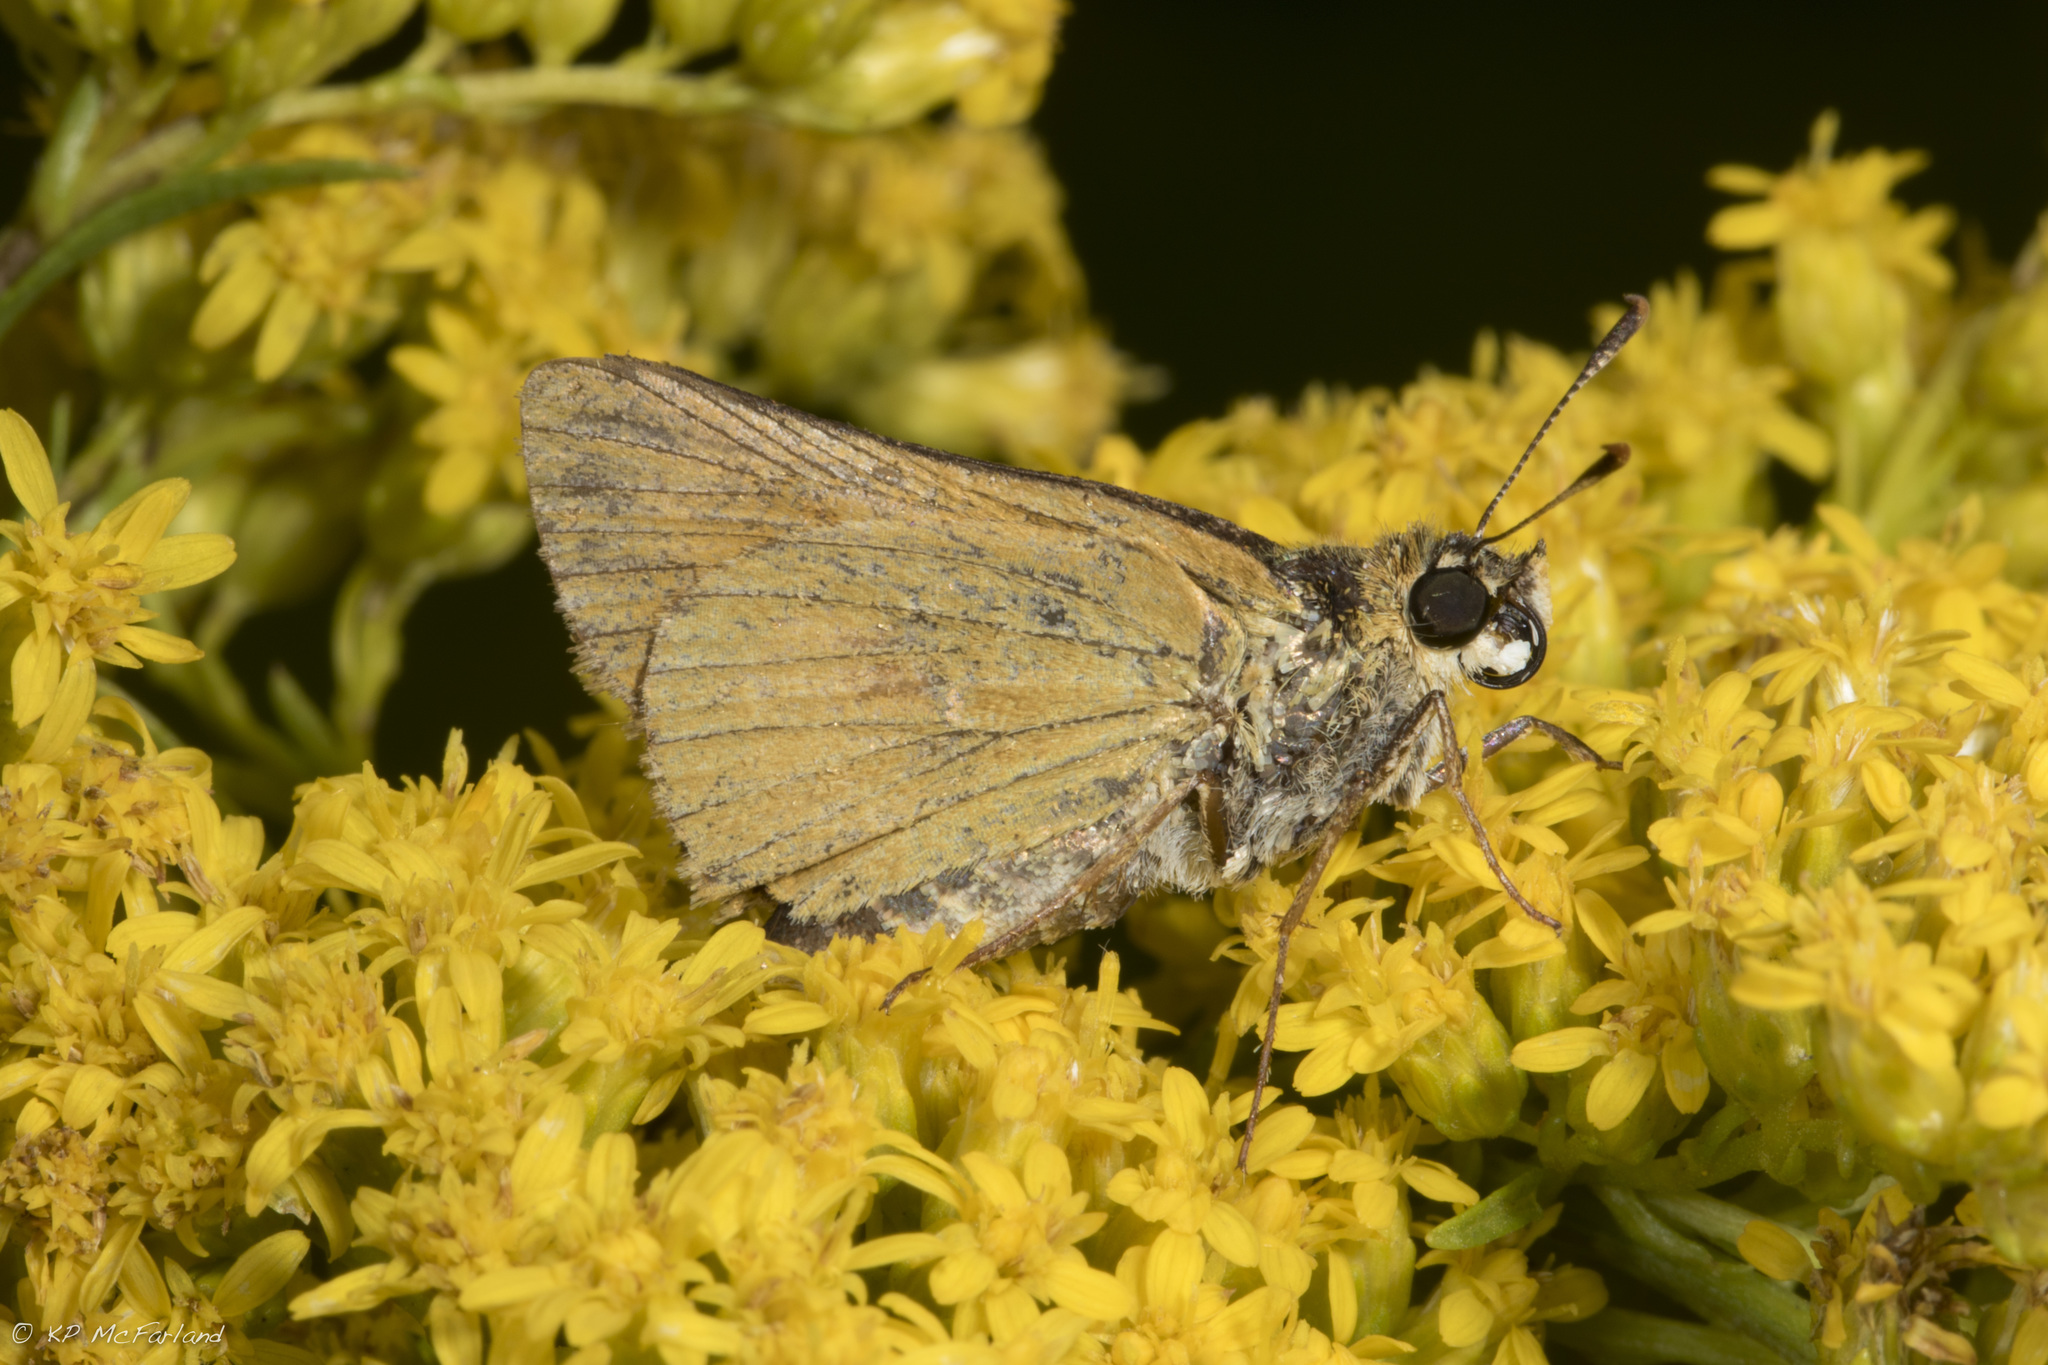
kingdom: Animalia
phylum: Arthropoda
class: Insecta
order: Lepidoptera
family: Hesperiidae
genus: Atrytone
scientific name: Atrytone delaware
